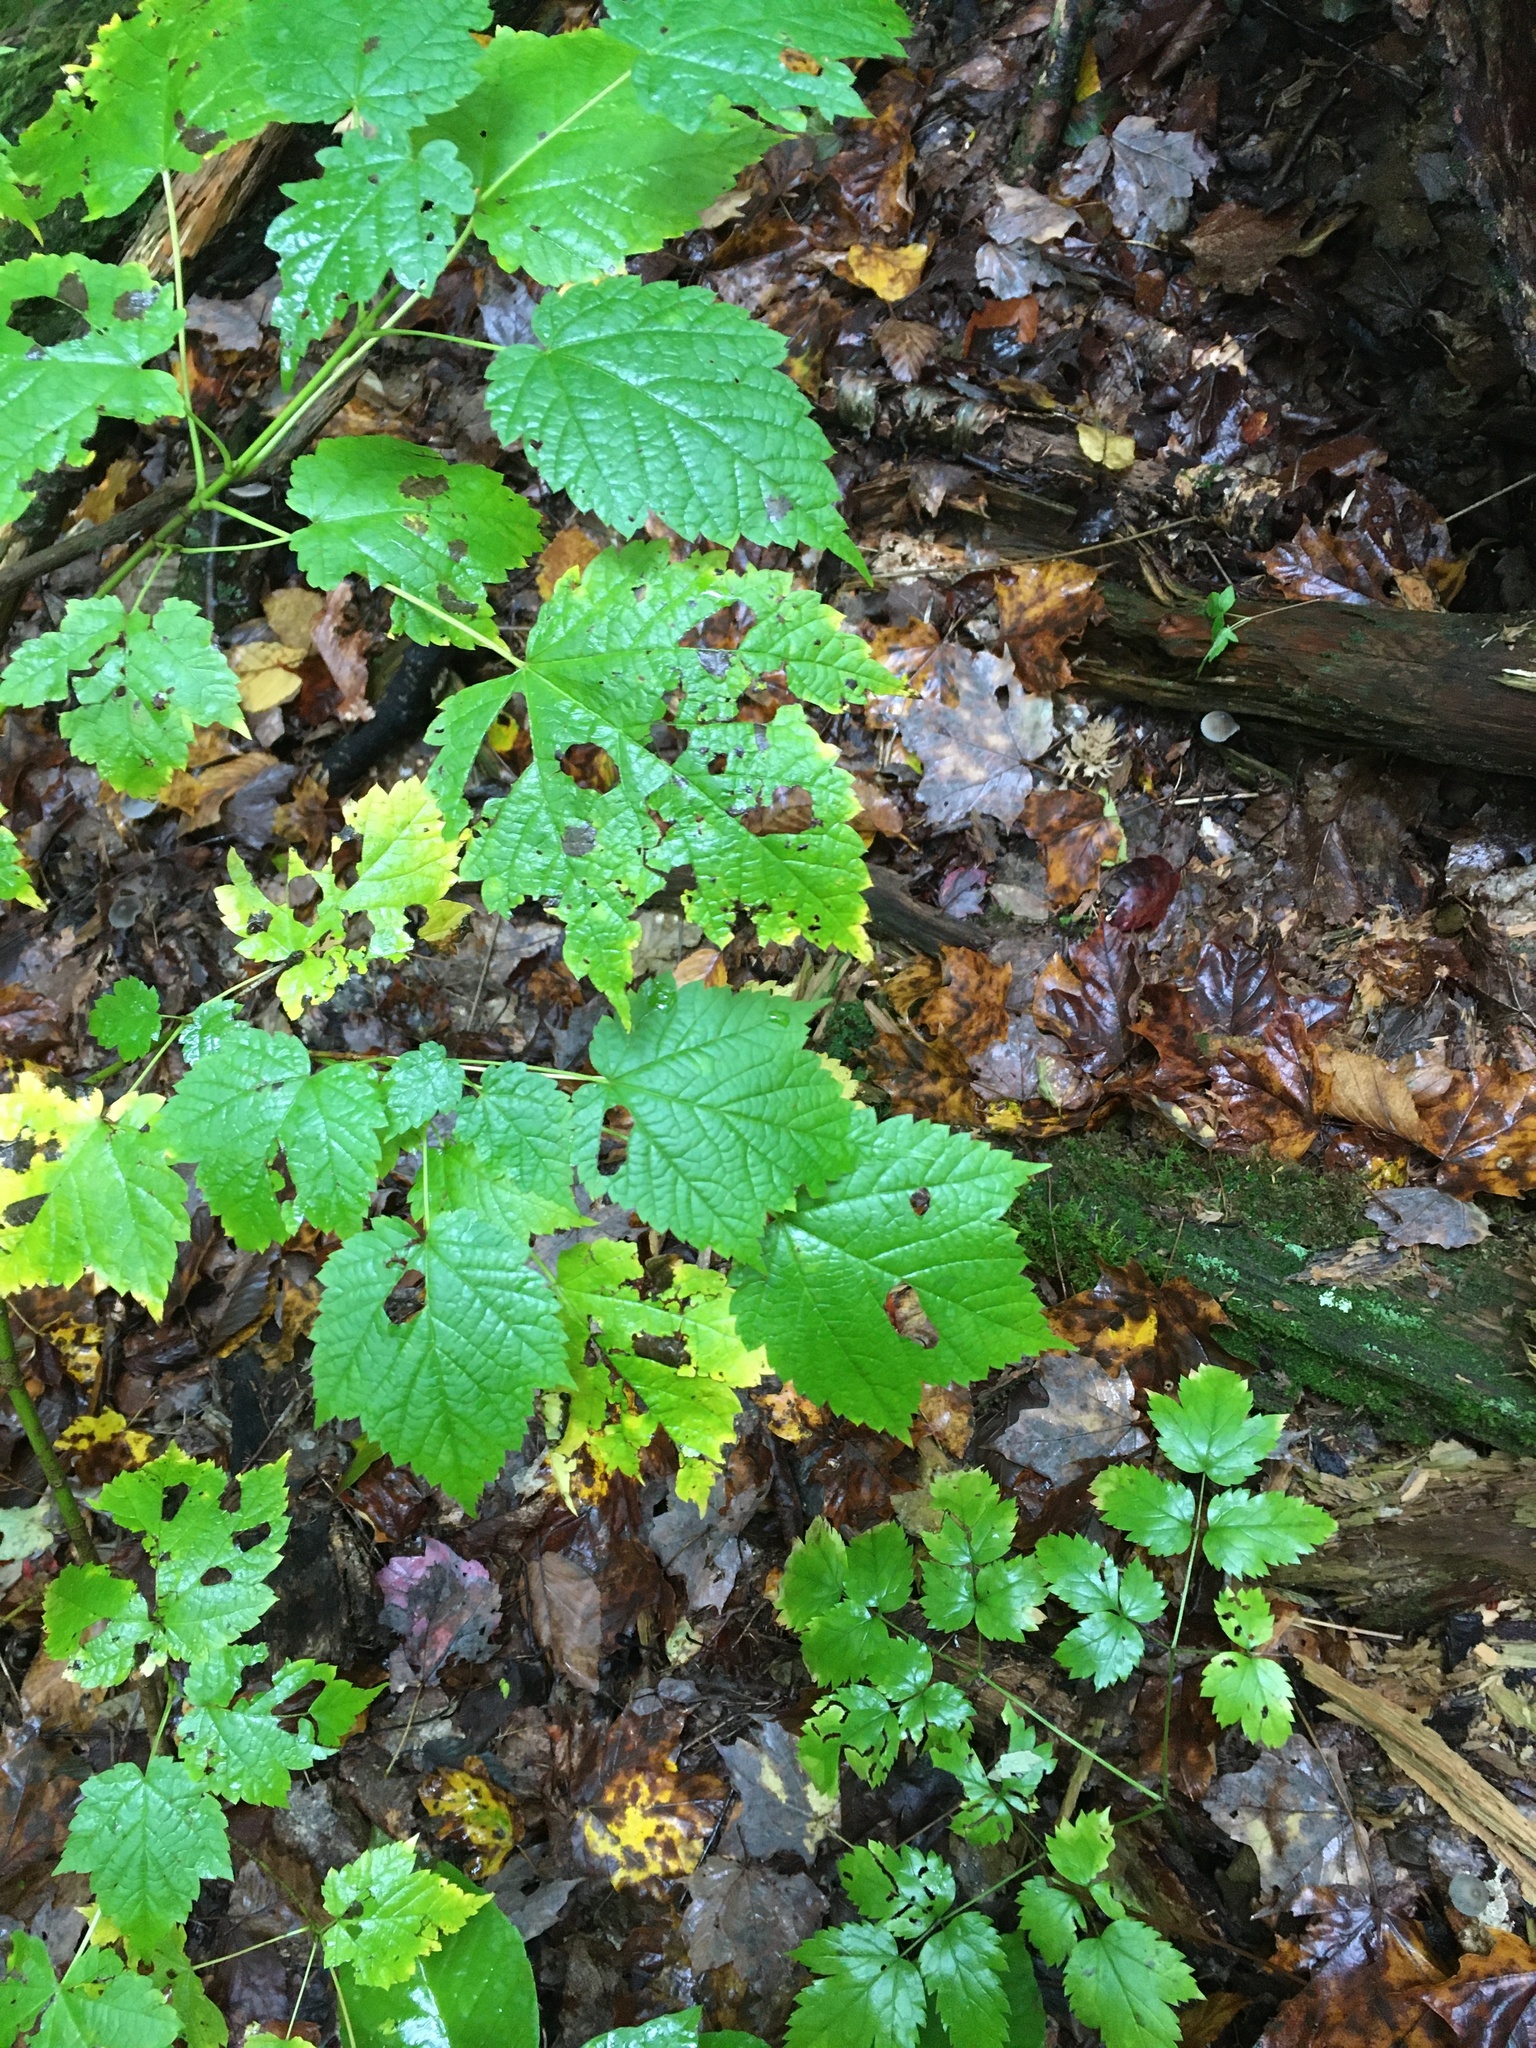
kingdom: Plantae
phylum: Tracheophyta
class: Magnoliopsida
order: Sapindales
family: Sapindaceae
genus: Acer
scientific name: Acer spicatum
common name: Mountain maple
